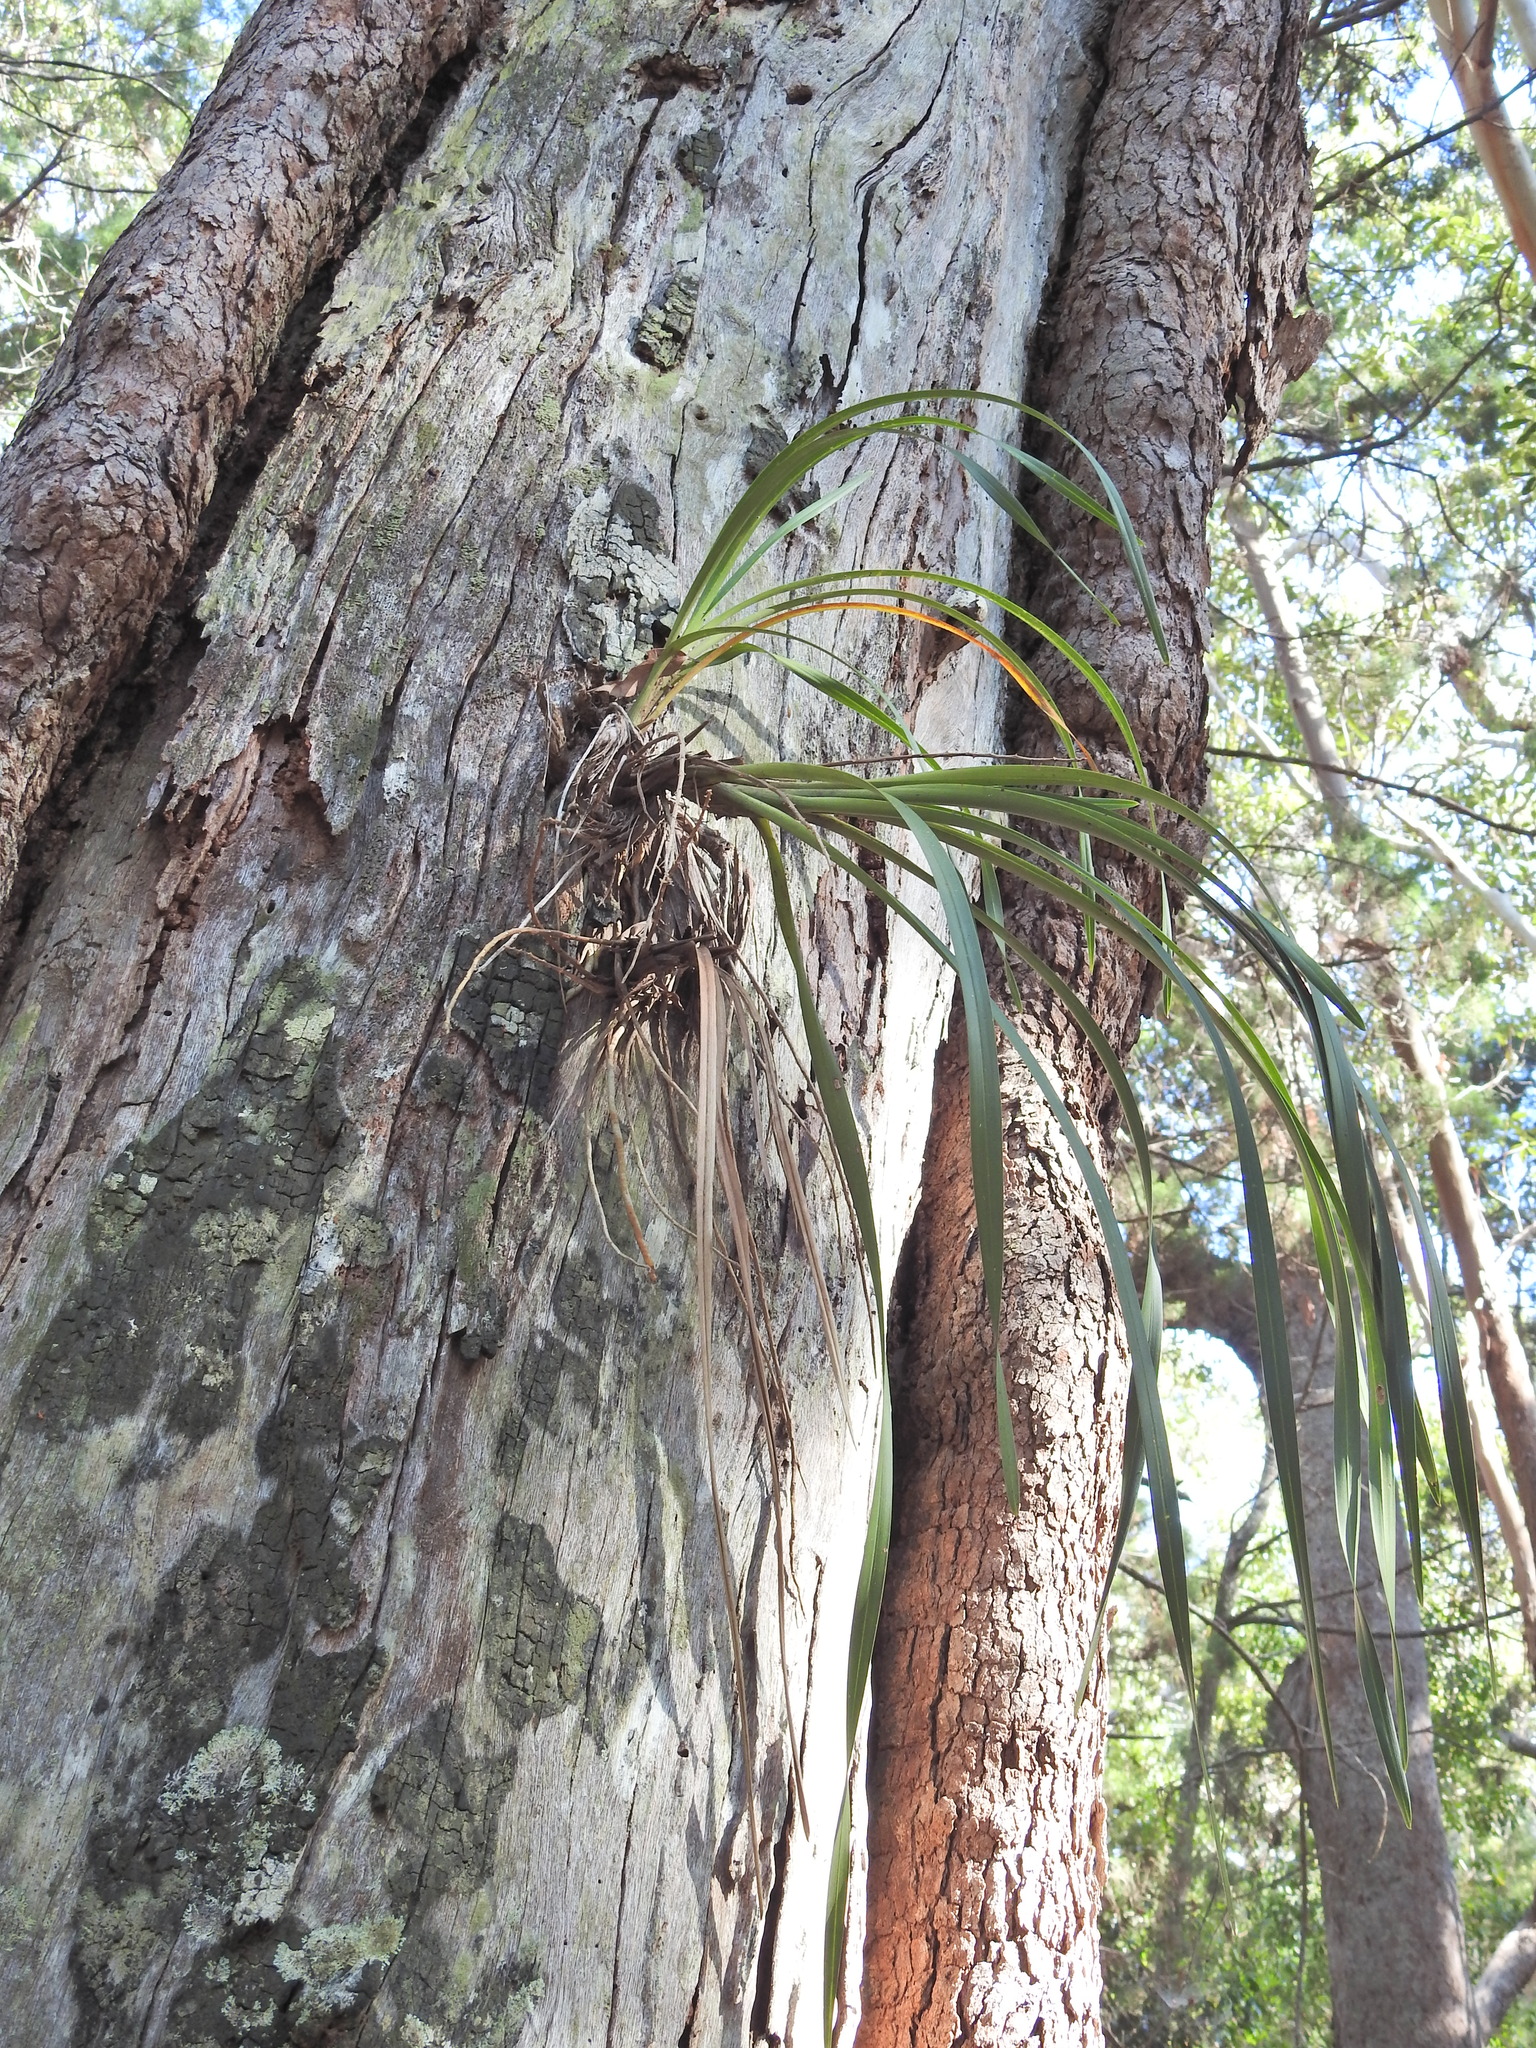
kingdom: Plantae
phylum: Tracheophyta
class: Liliopsida
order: Asparagales
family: Orchidaceae
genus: Cymbidium
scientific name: Cymbidium suave
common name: Snake orchid
